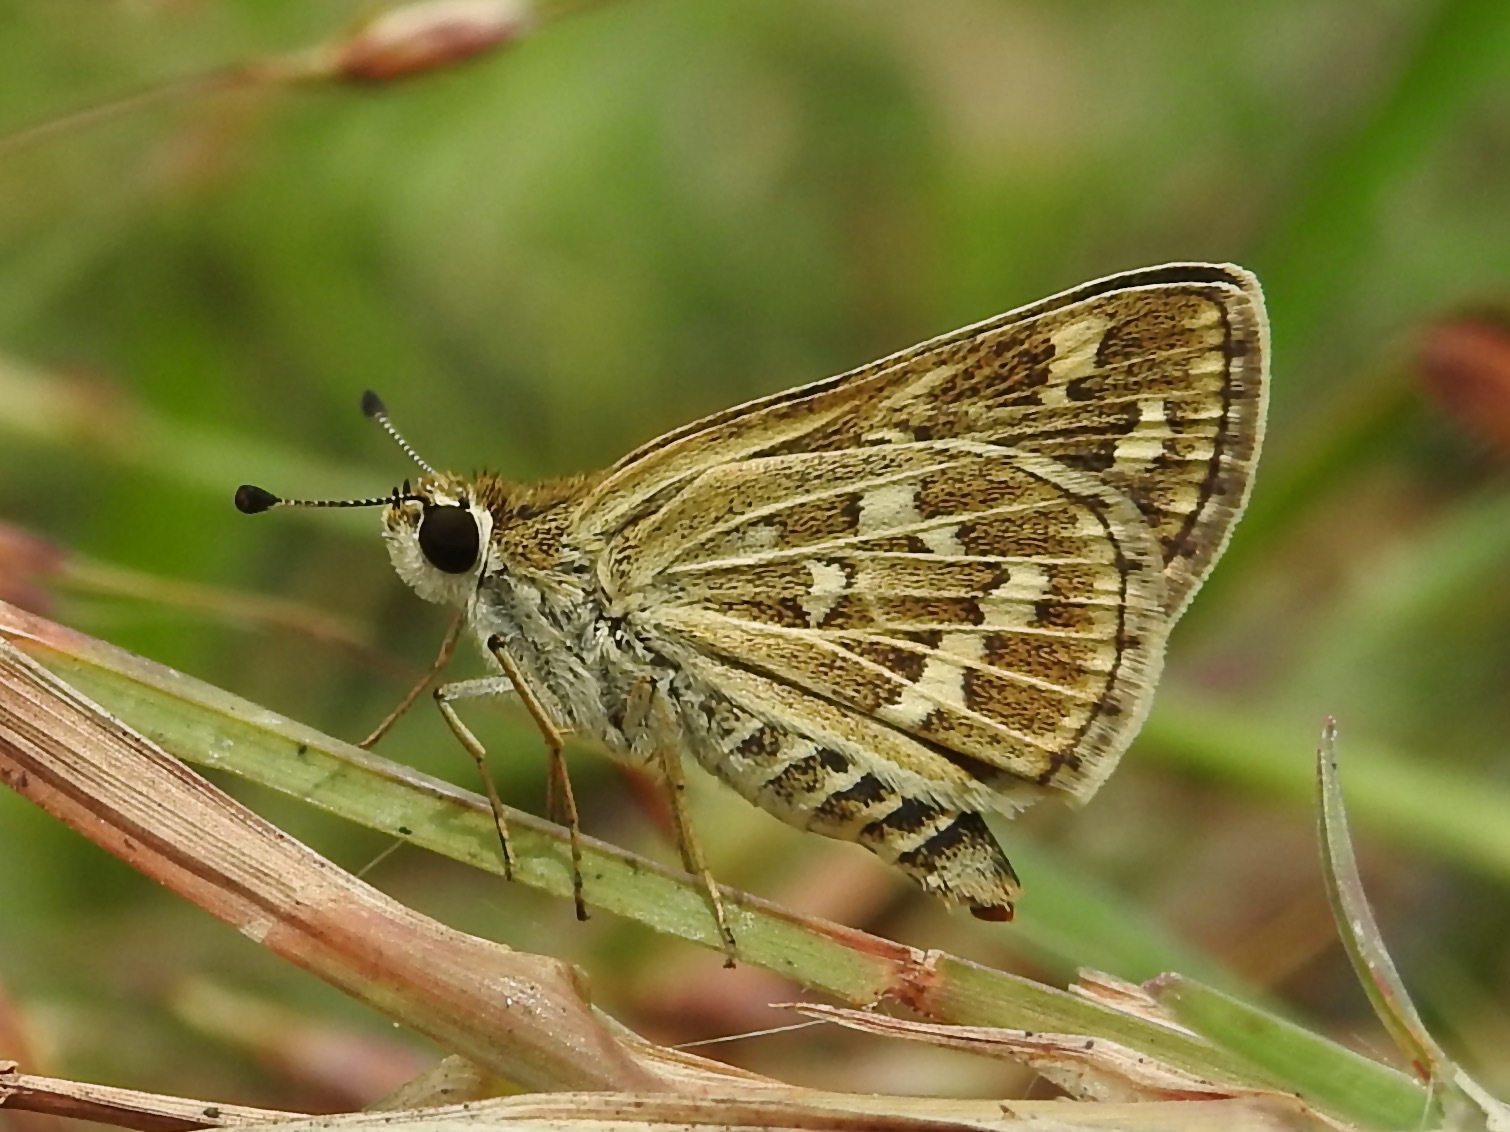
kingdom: Animalia
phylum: Arthropoda
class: Insecta
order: Lepidoptera
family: Hesperiidae
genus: Taractrocera
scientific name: Taractrocera maevius
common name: Common grass-dart
